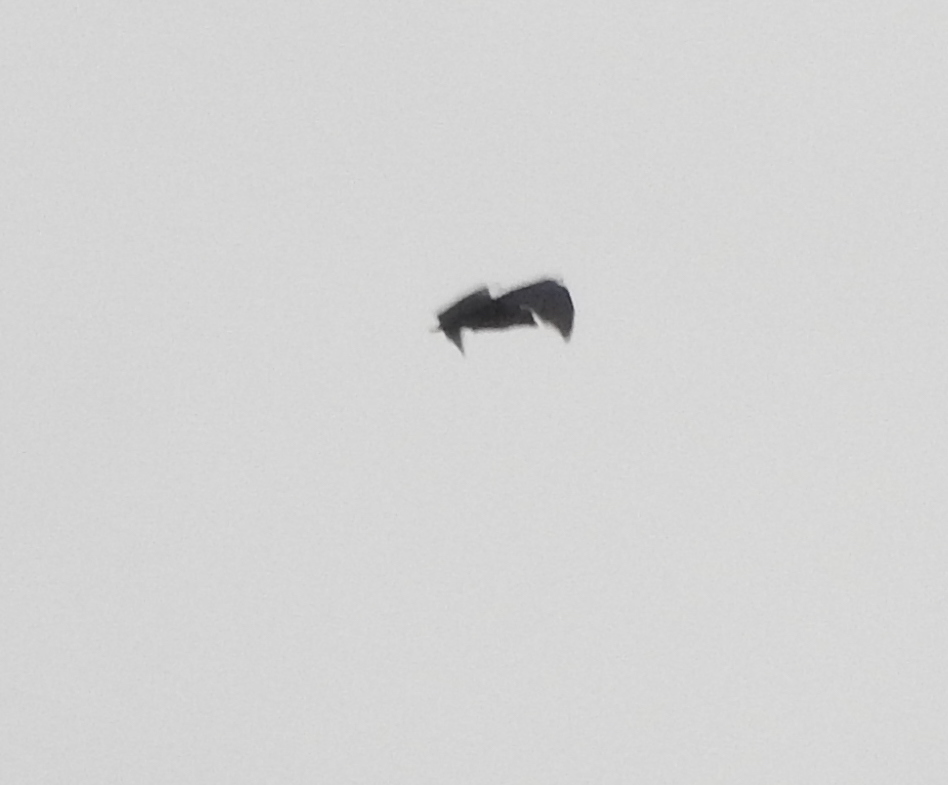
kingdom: Animalia
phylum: Chordata
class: Mammalia
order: Chiroptera
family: Pteropodidae
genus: Pteropus
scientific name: Pteropus vampyrus
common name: Large flying fox
